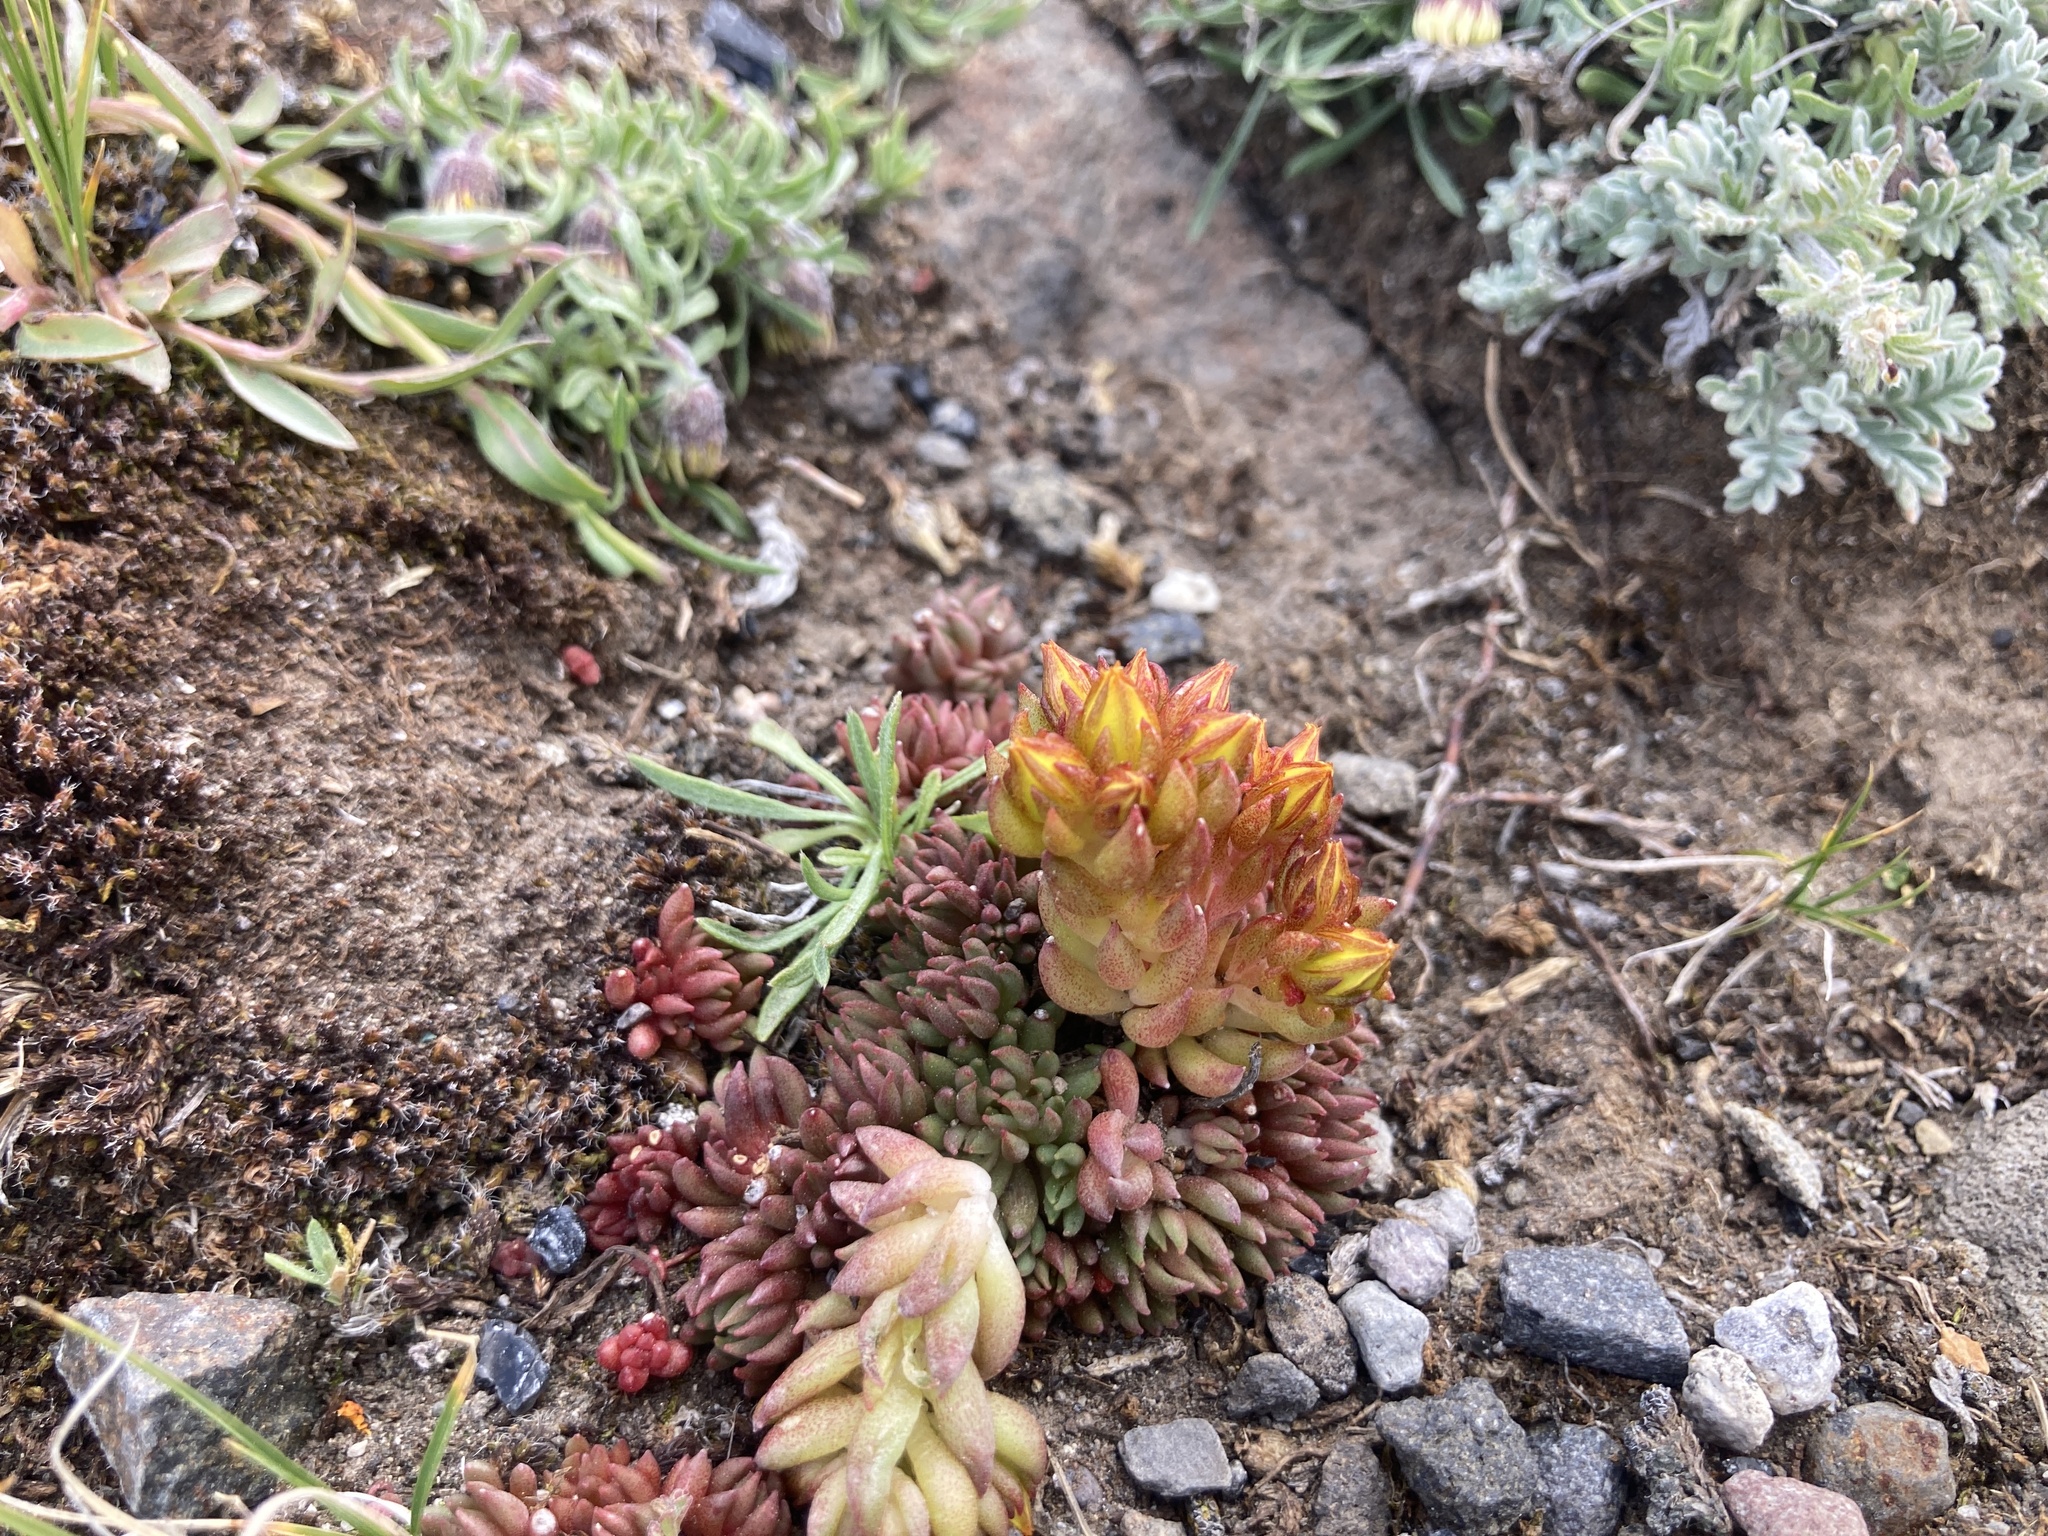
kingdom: Plantae
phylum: Tracheophyta
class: Magnoliopsida
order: Saxifragales
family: Crassulaceae
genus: Sedum
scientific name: Sedum lanceolatum
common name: Common stonecrop
